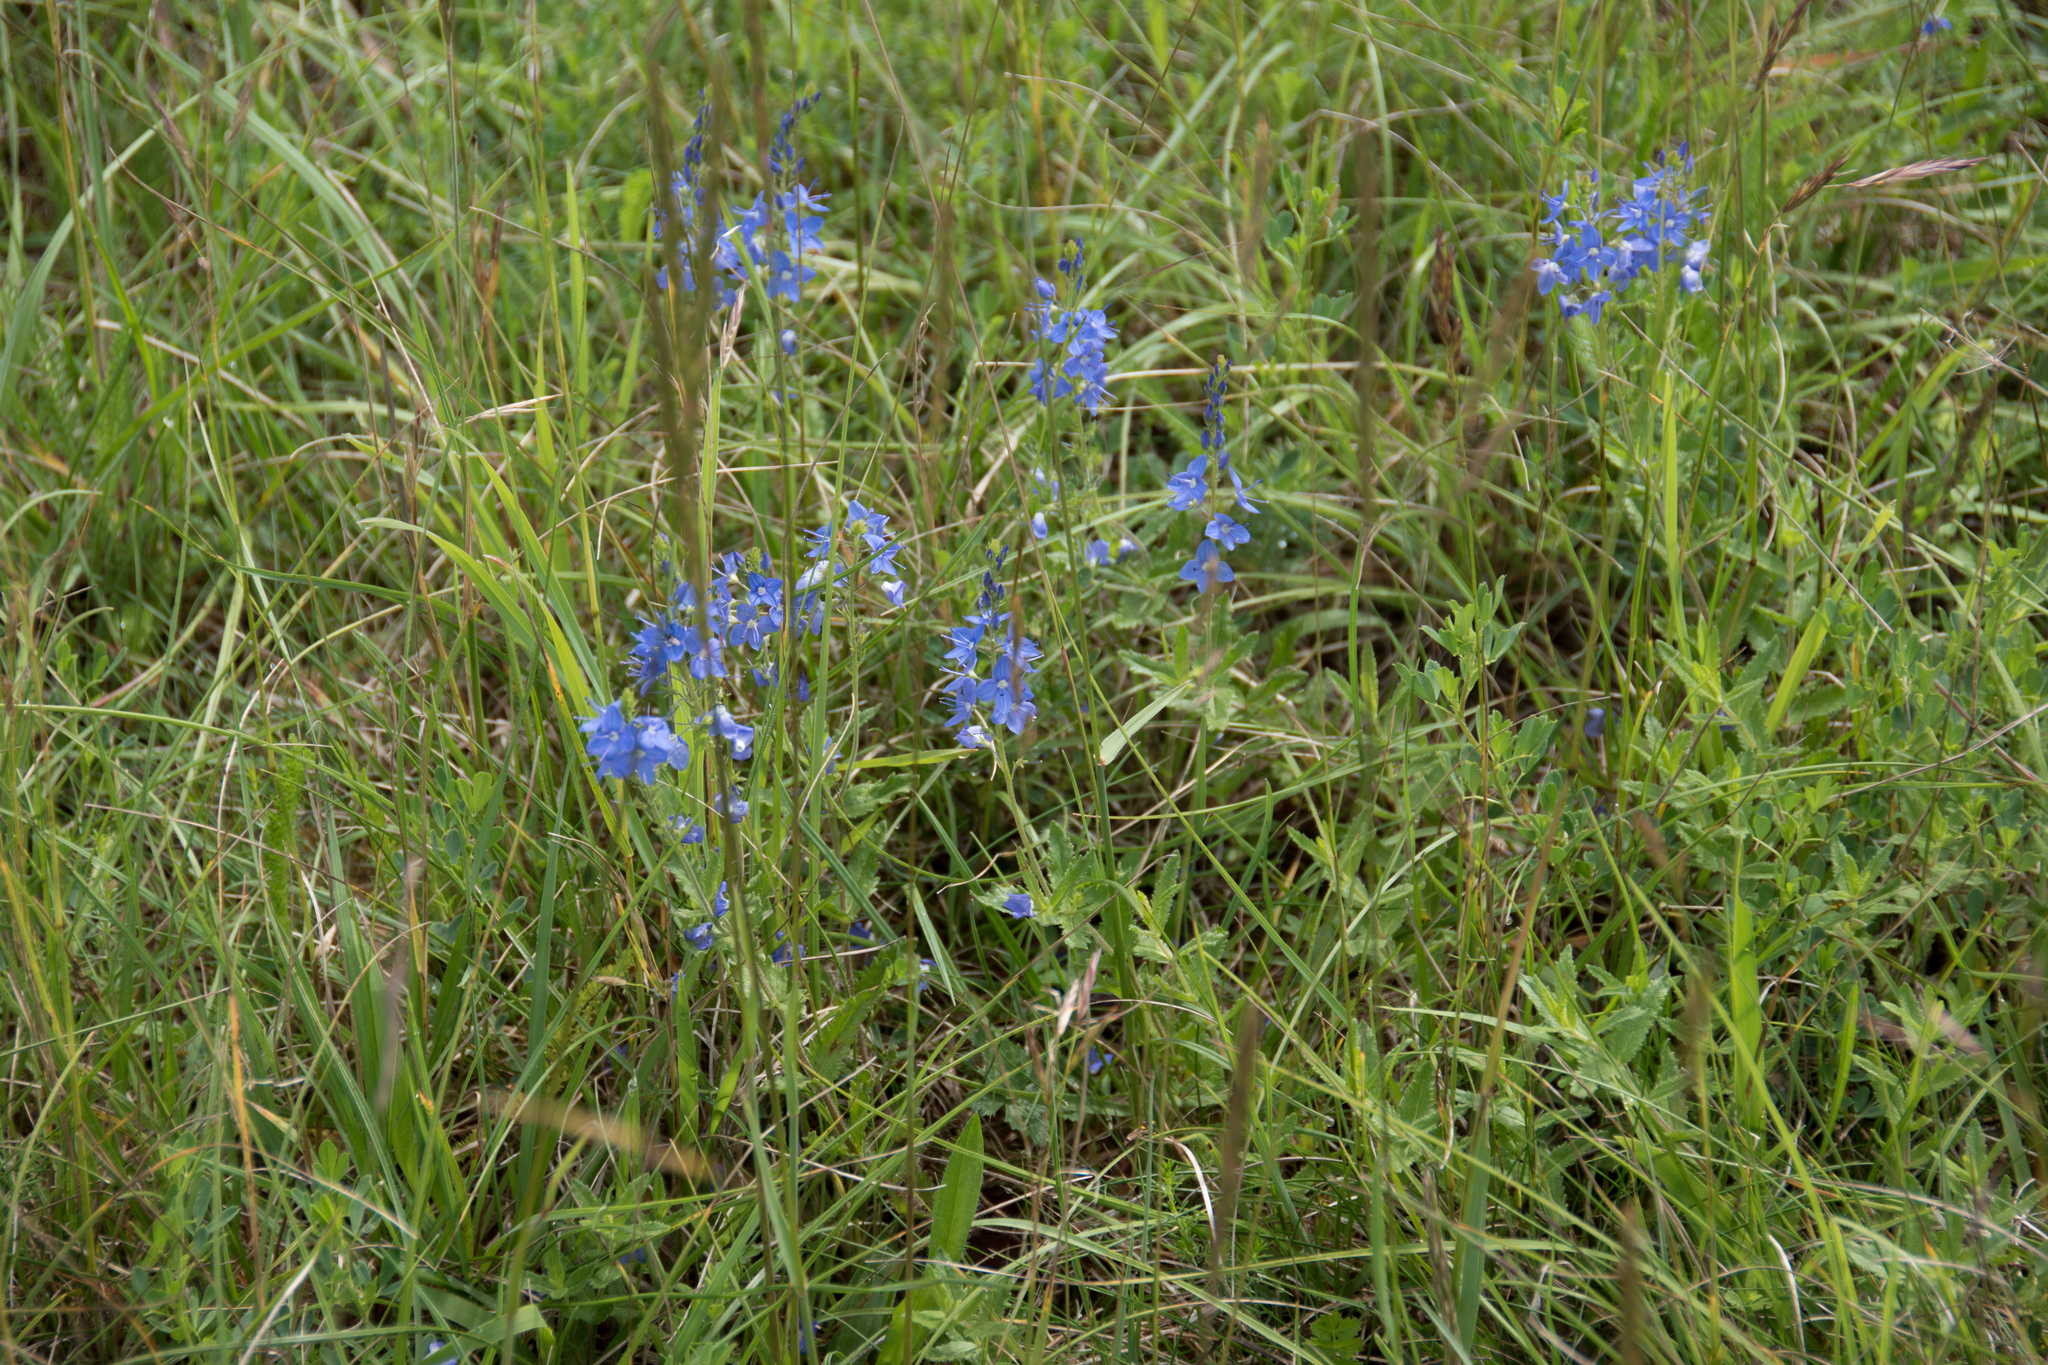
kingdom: Plantae
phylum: Tracheophyta
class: Magnoliopsida
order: Lamiales
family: Plantaginaceae
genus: Veronica
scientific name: Veronica teucrium
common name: Large speedwell
